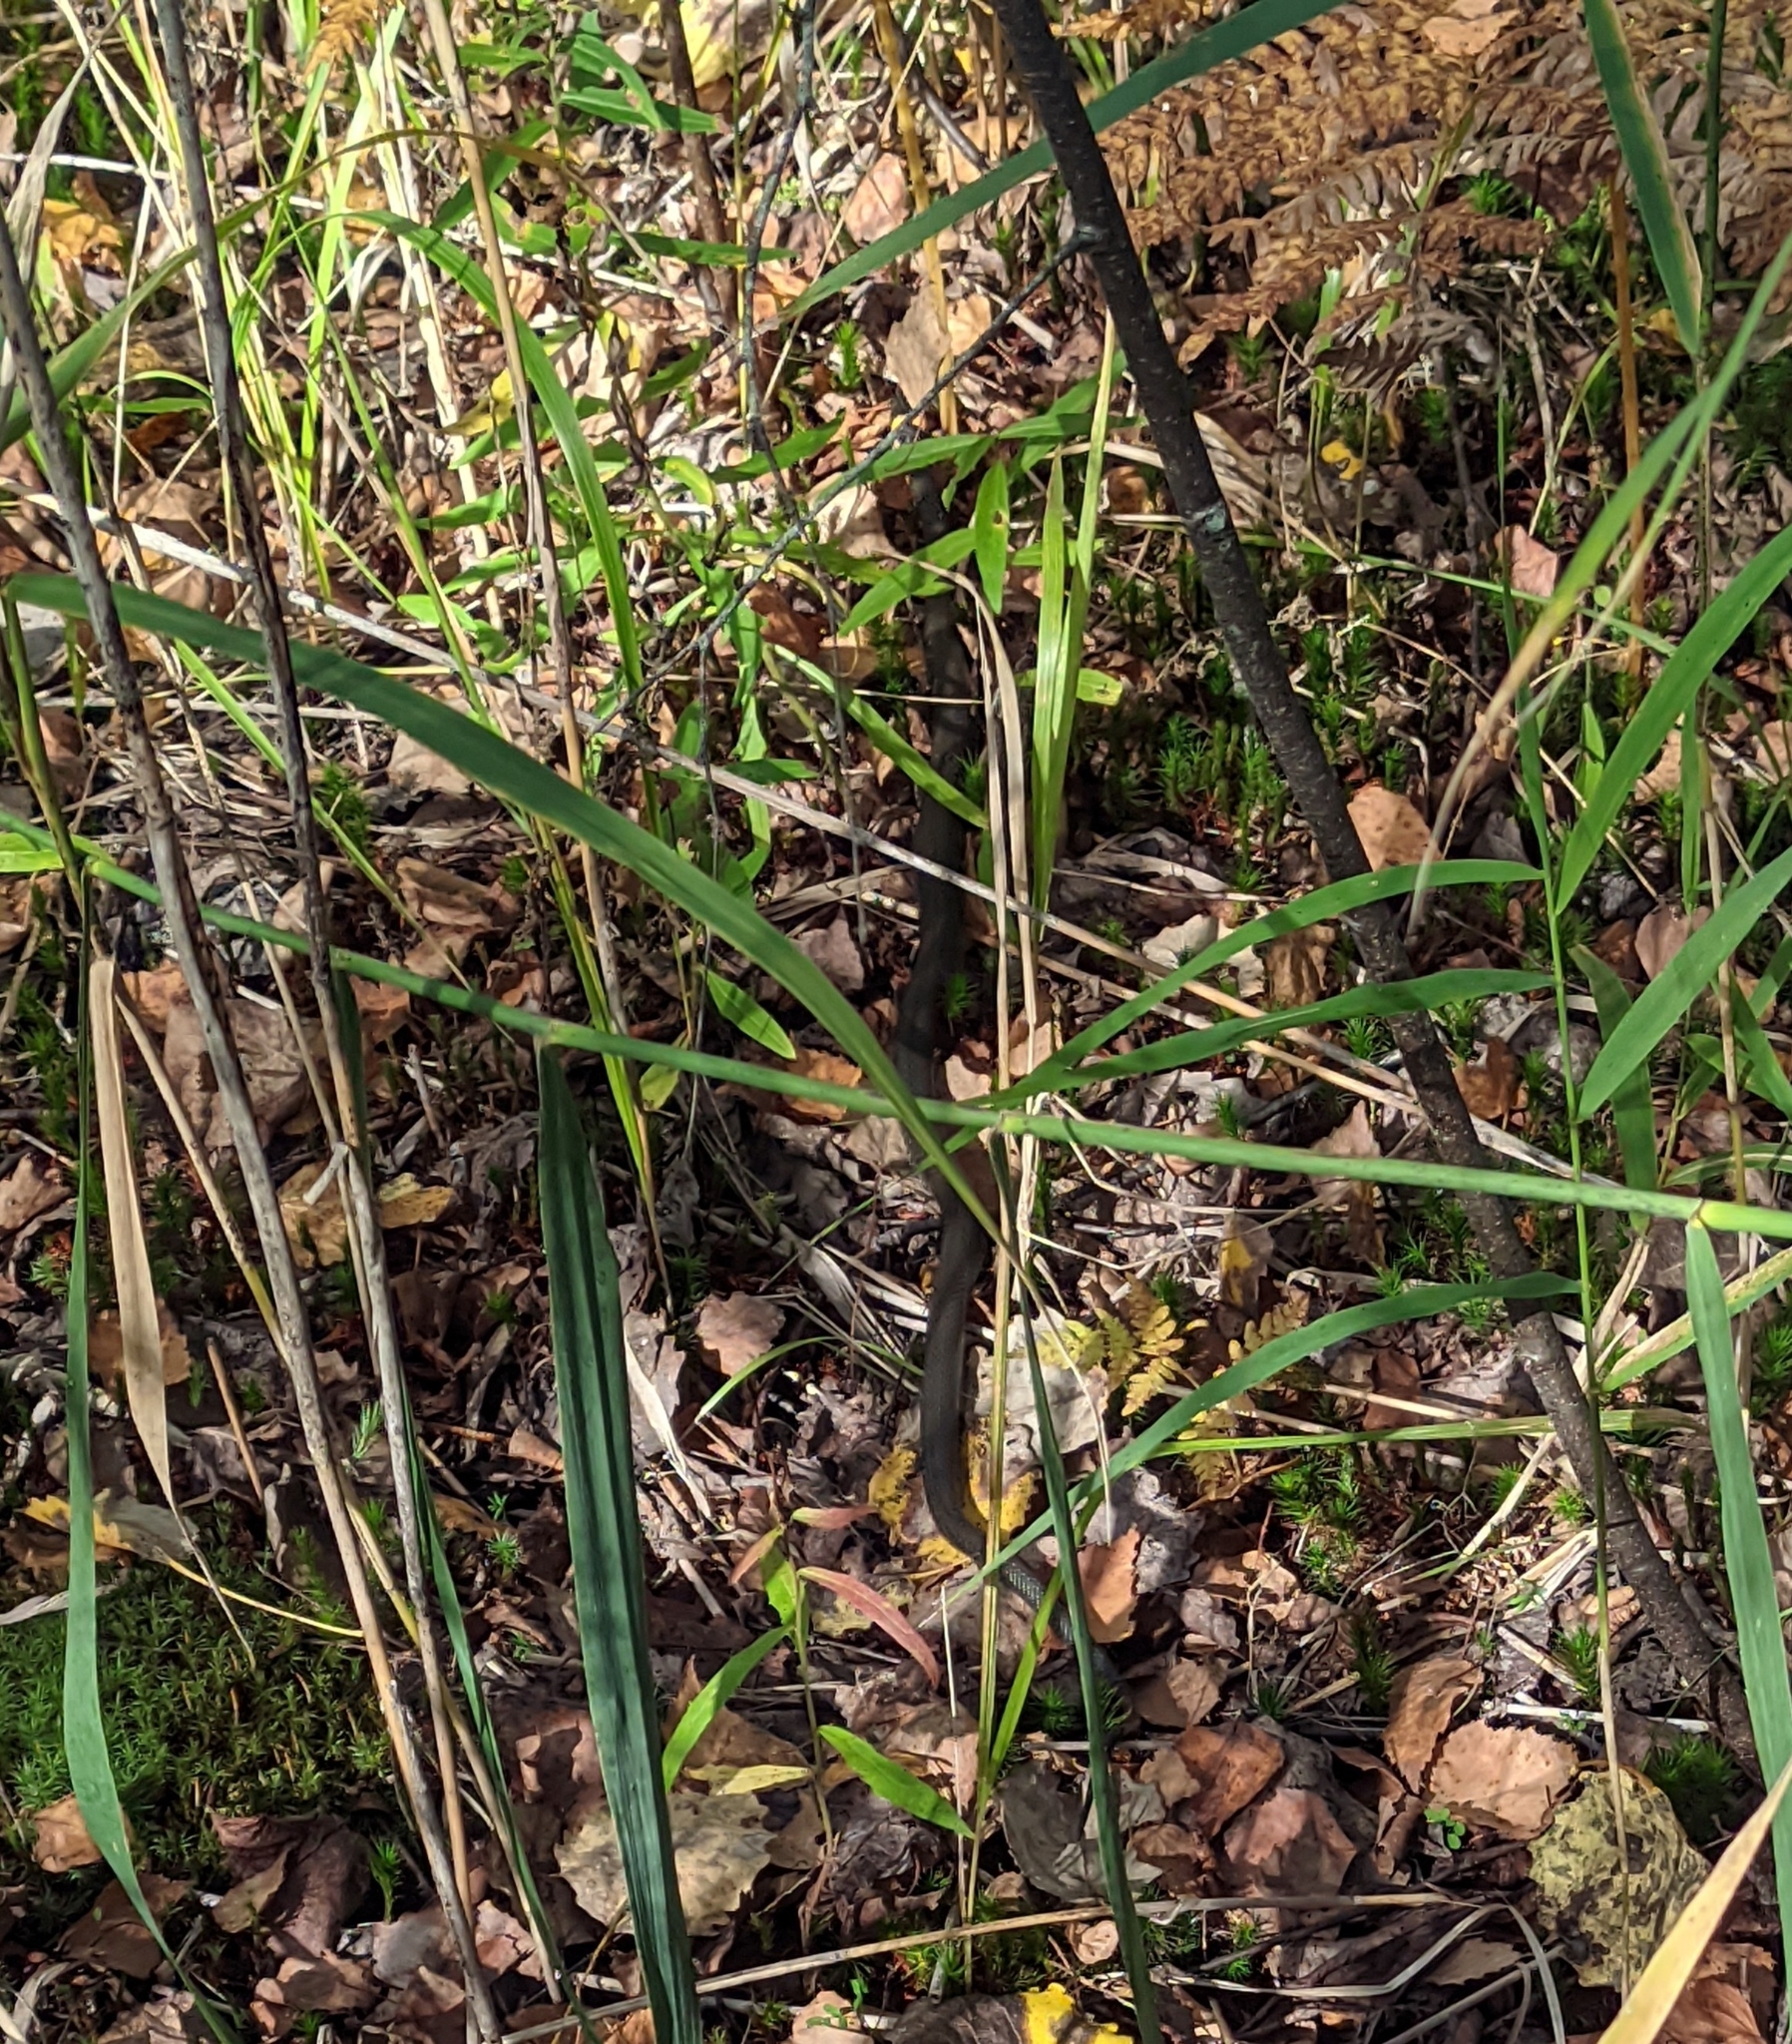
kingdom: Animalia
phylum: Chordata
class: Squamata
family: Colubridae
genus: Natrix
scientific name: Natrix natrix
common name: Grass snake
